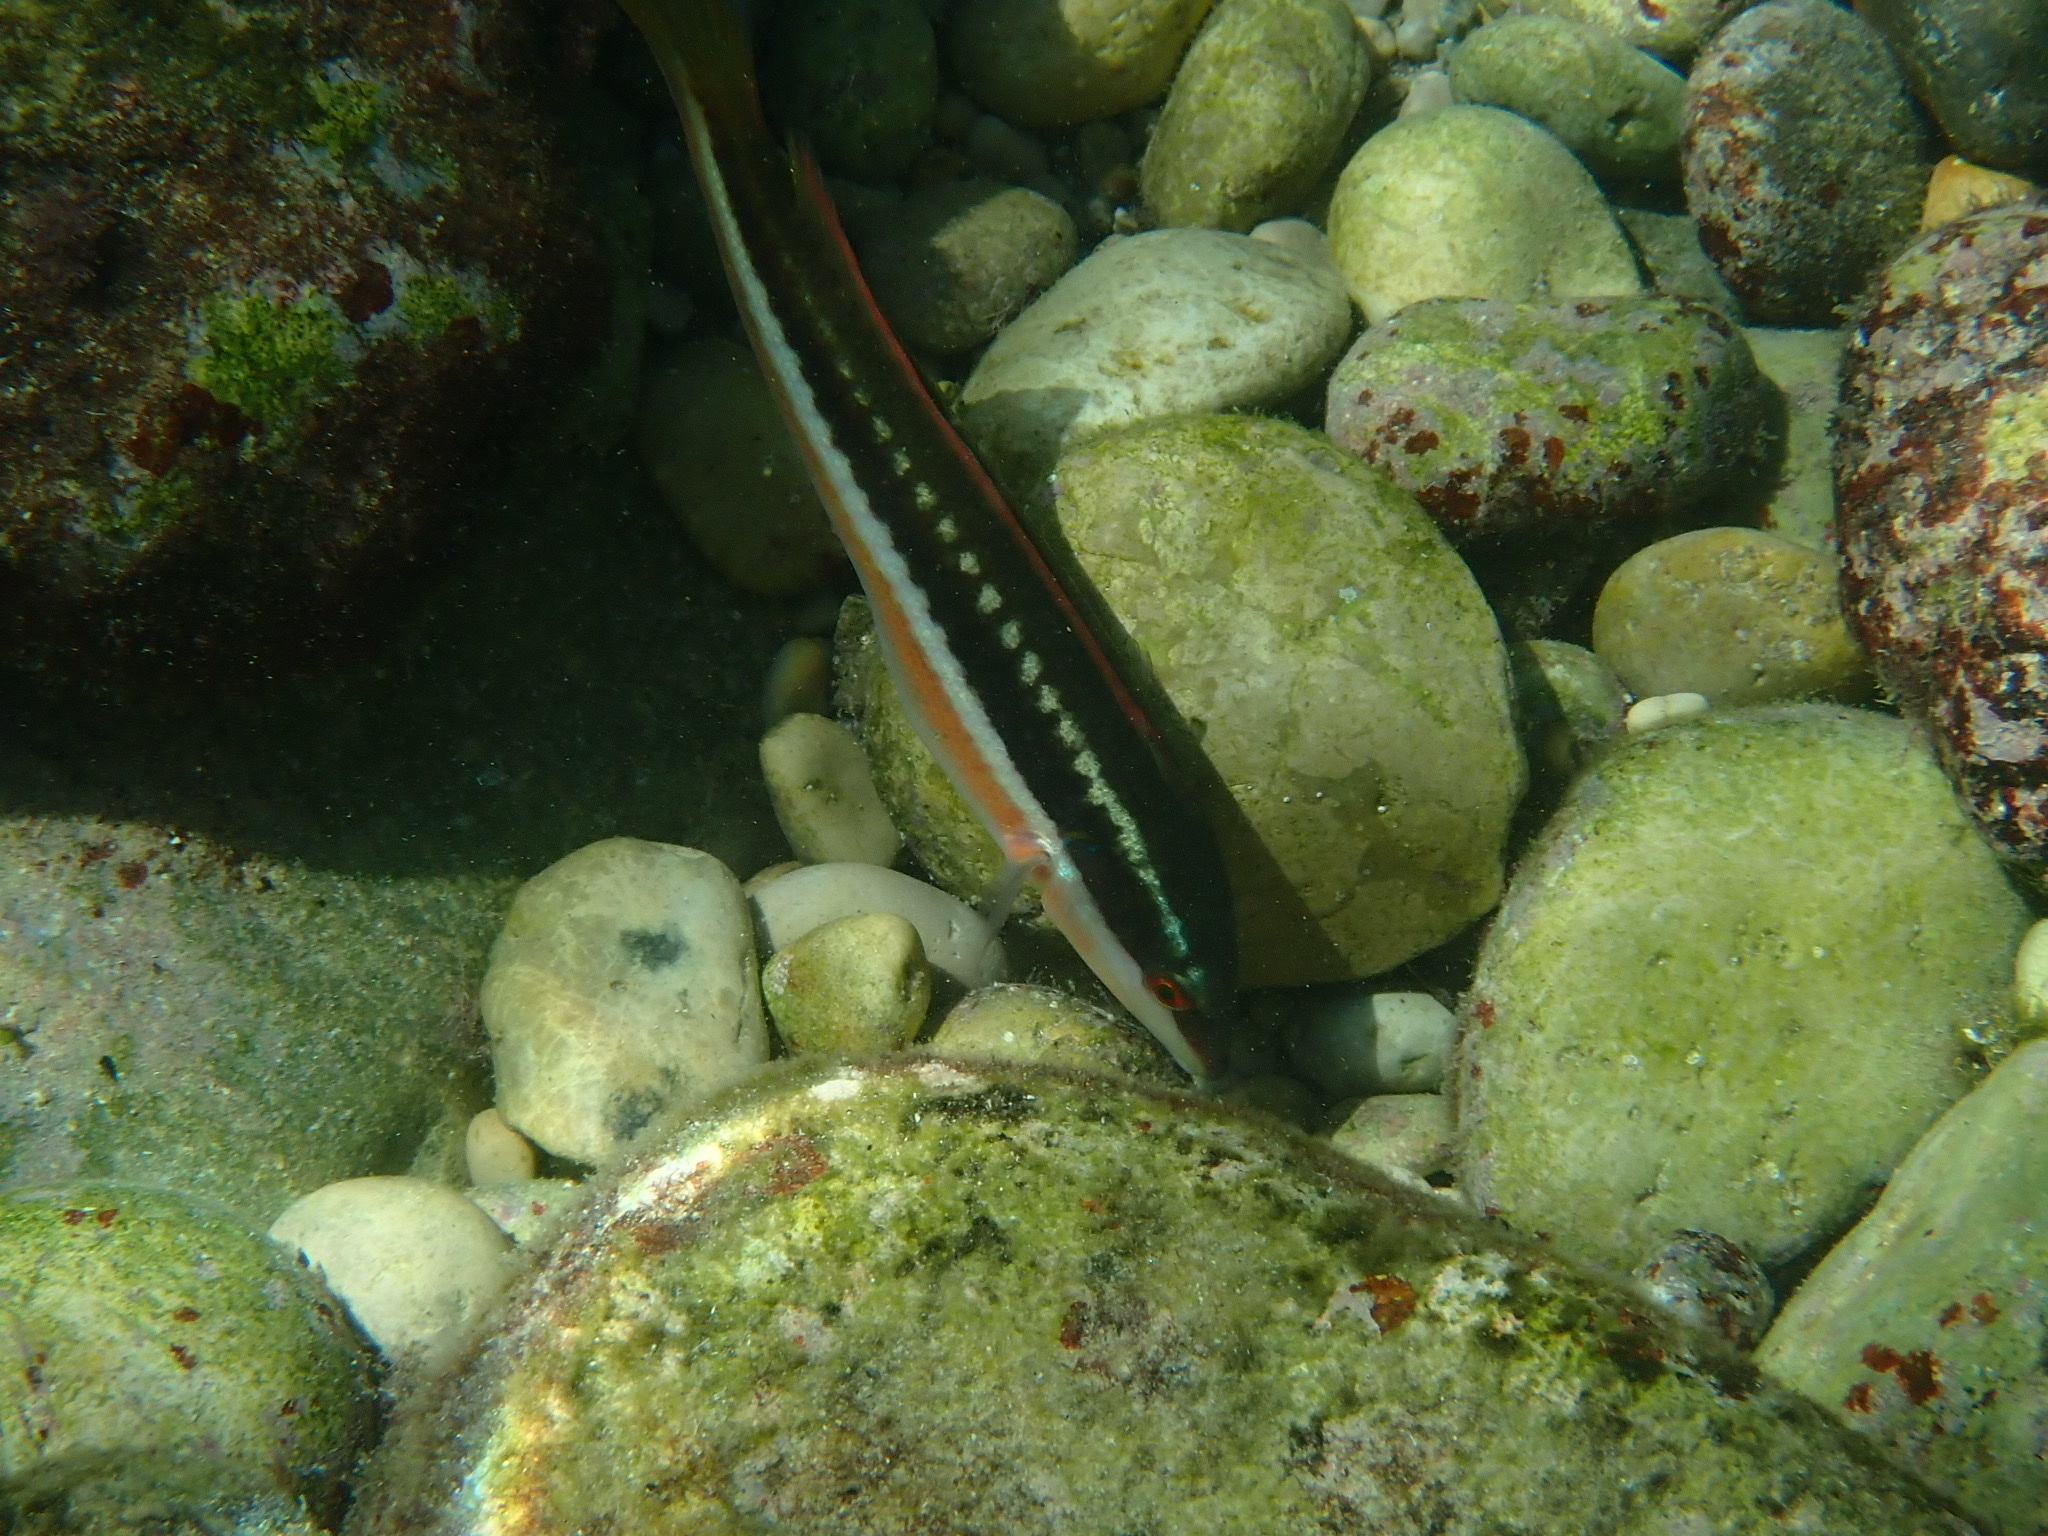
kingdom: Animalia
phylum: Chordata
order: Perciformes
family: Labridae
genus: Coris
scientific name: Coris julis
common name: Rainbow wrasse
